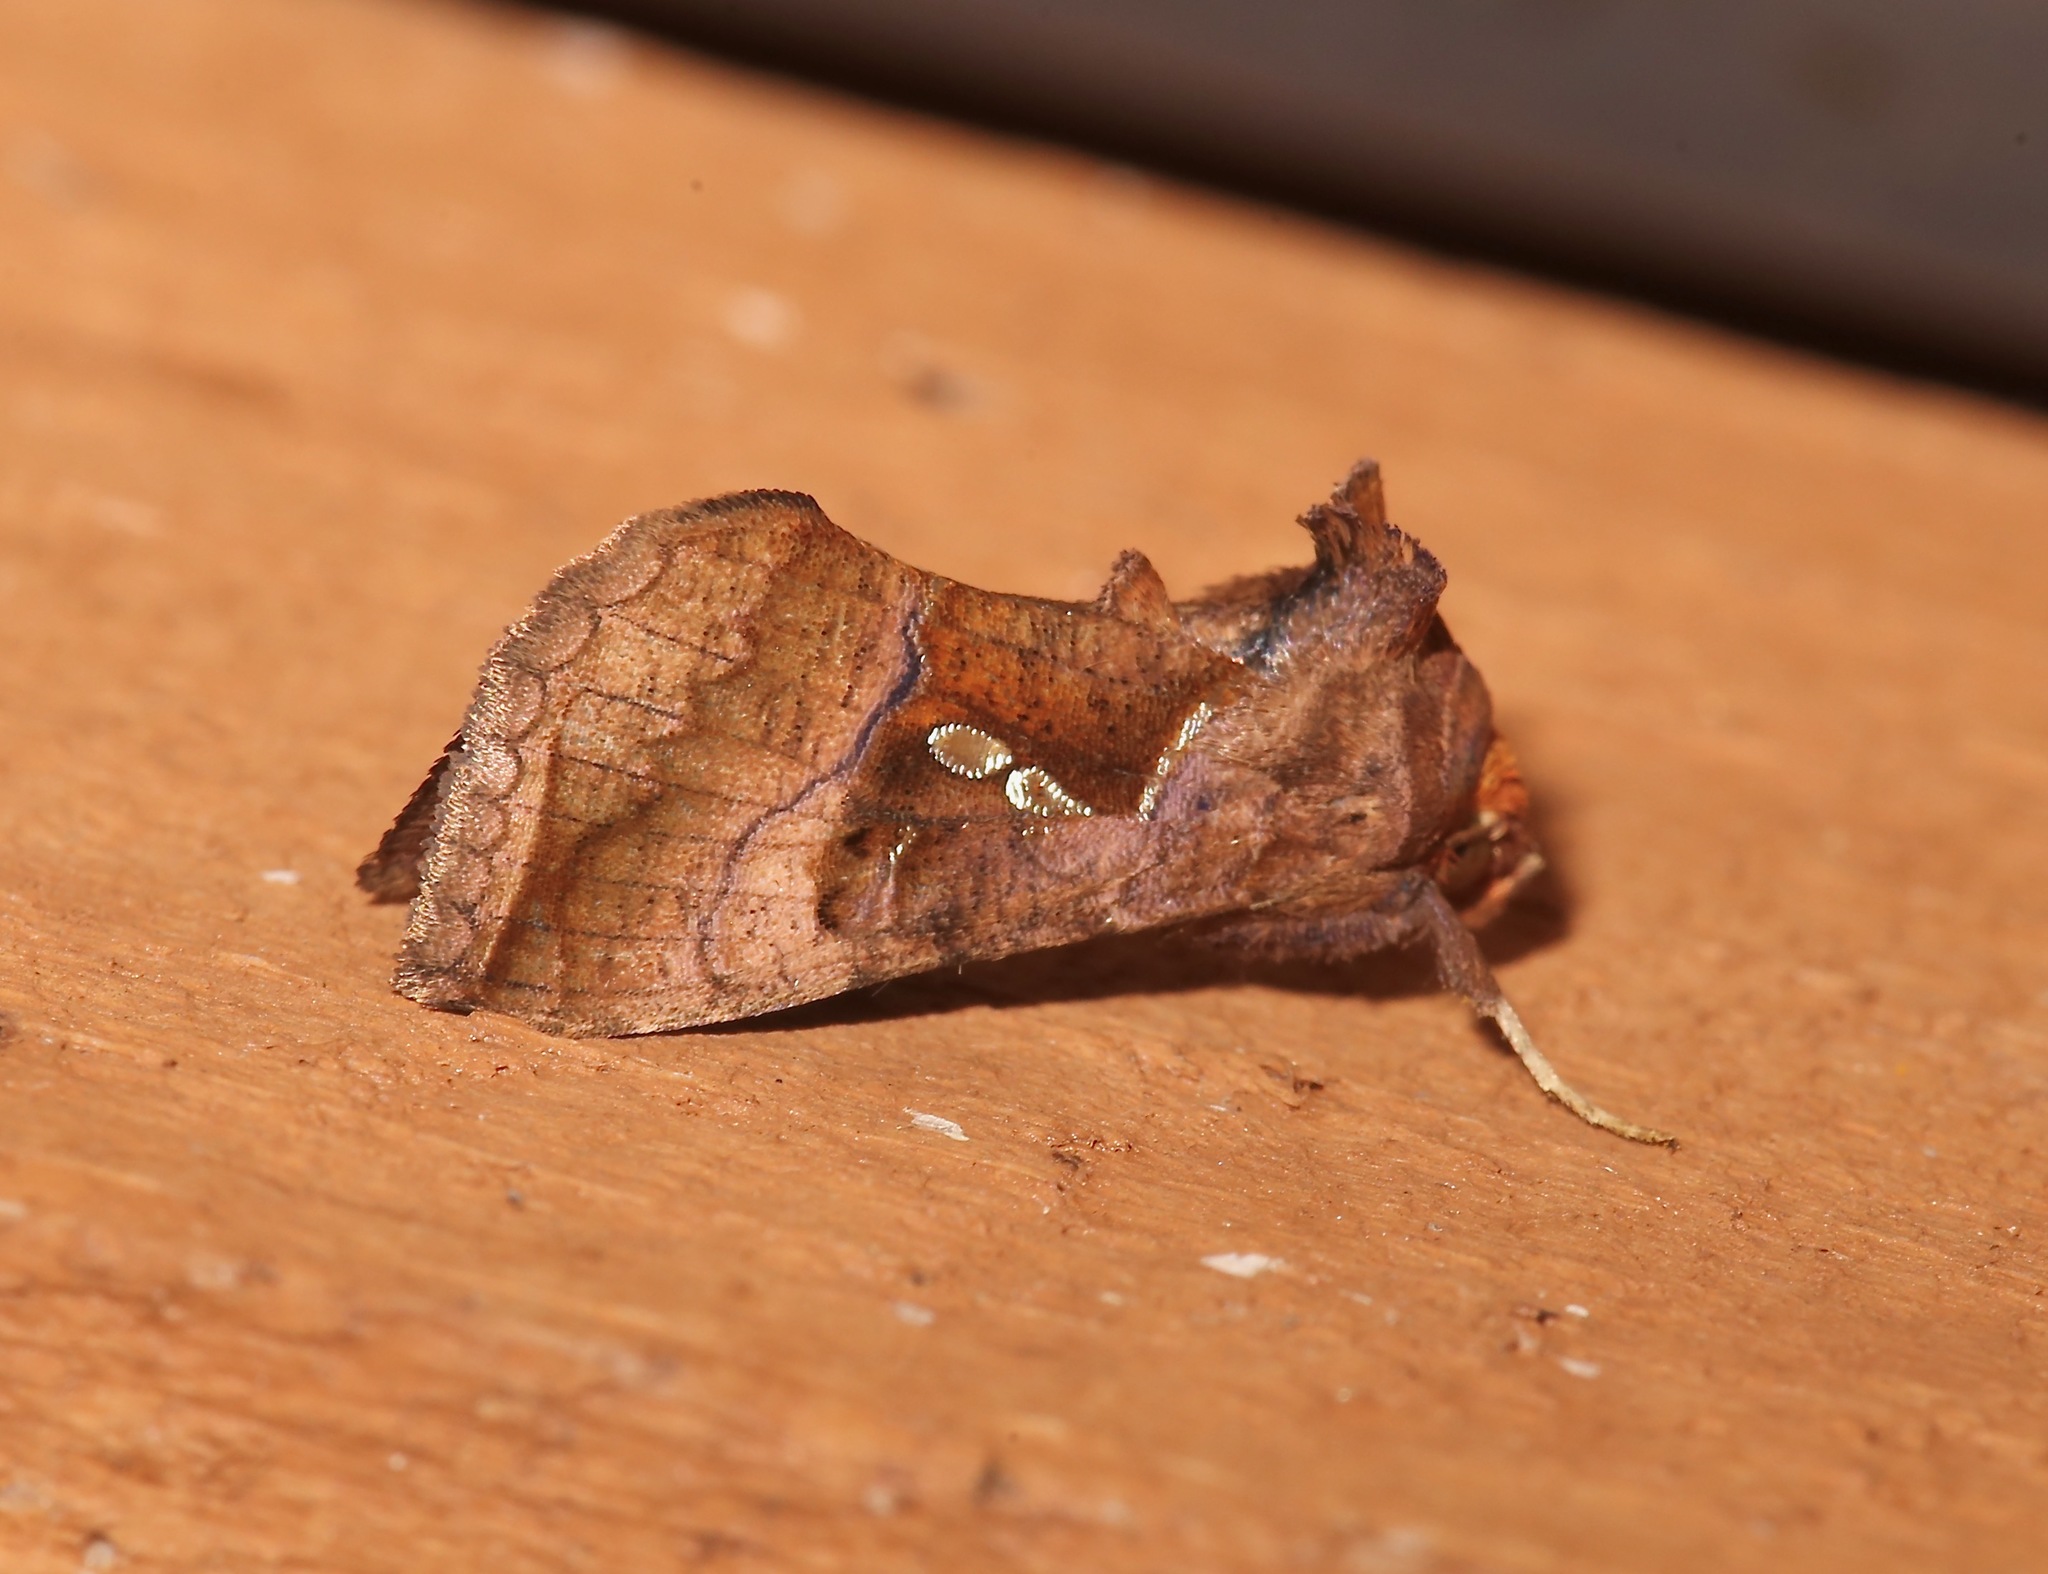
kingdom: Animalia
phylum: Arthropoda
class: Insecta
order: Lepidoptera
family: Noctuidae
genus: Enigmogramma
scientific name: Enigmogramma basigera
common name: Pink-washed looper moth
